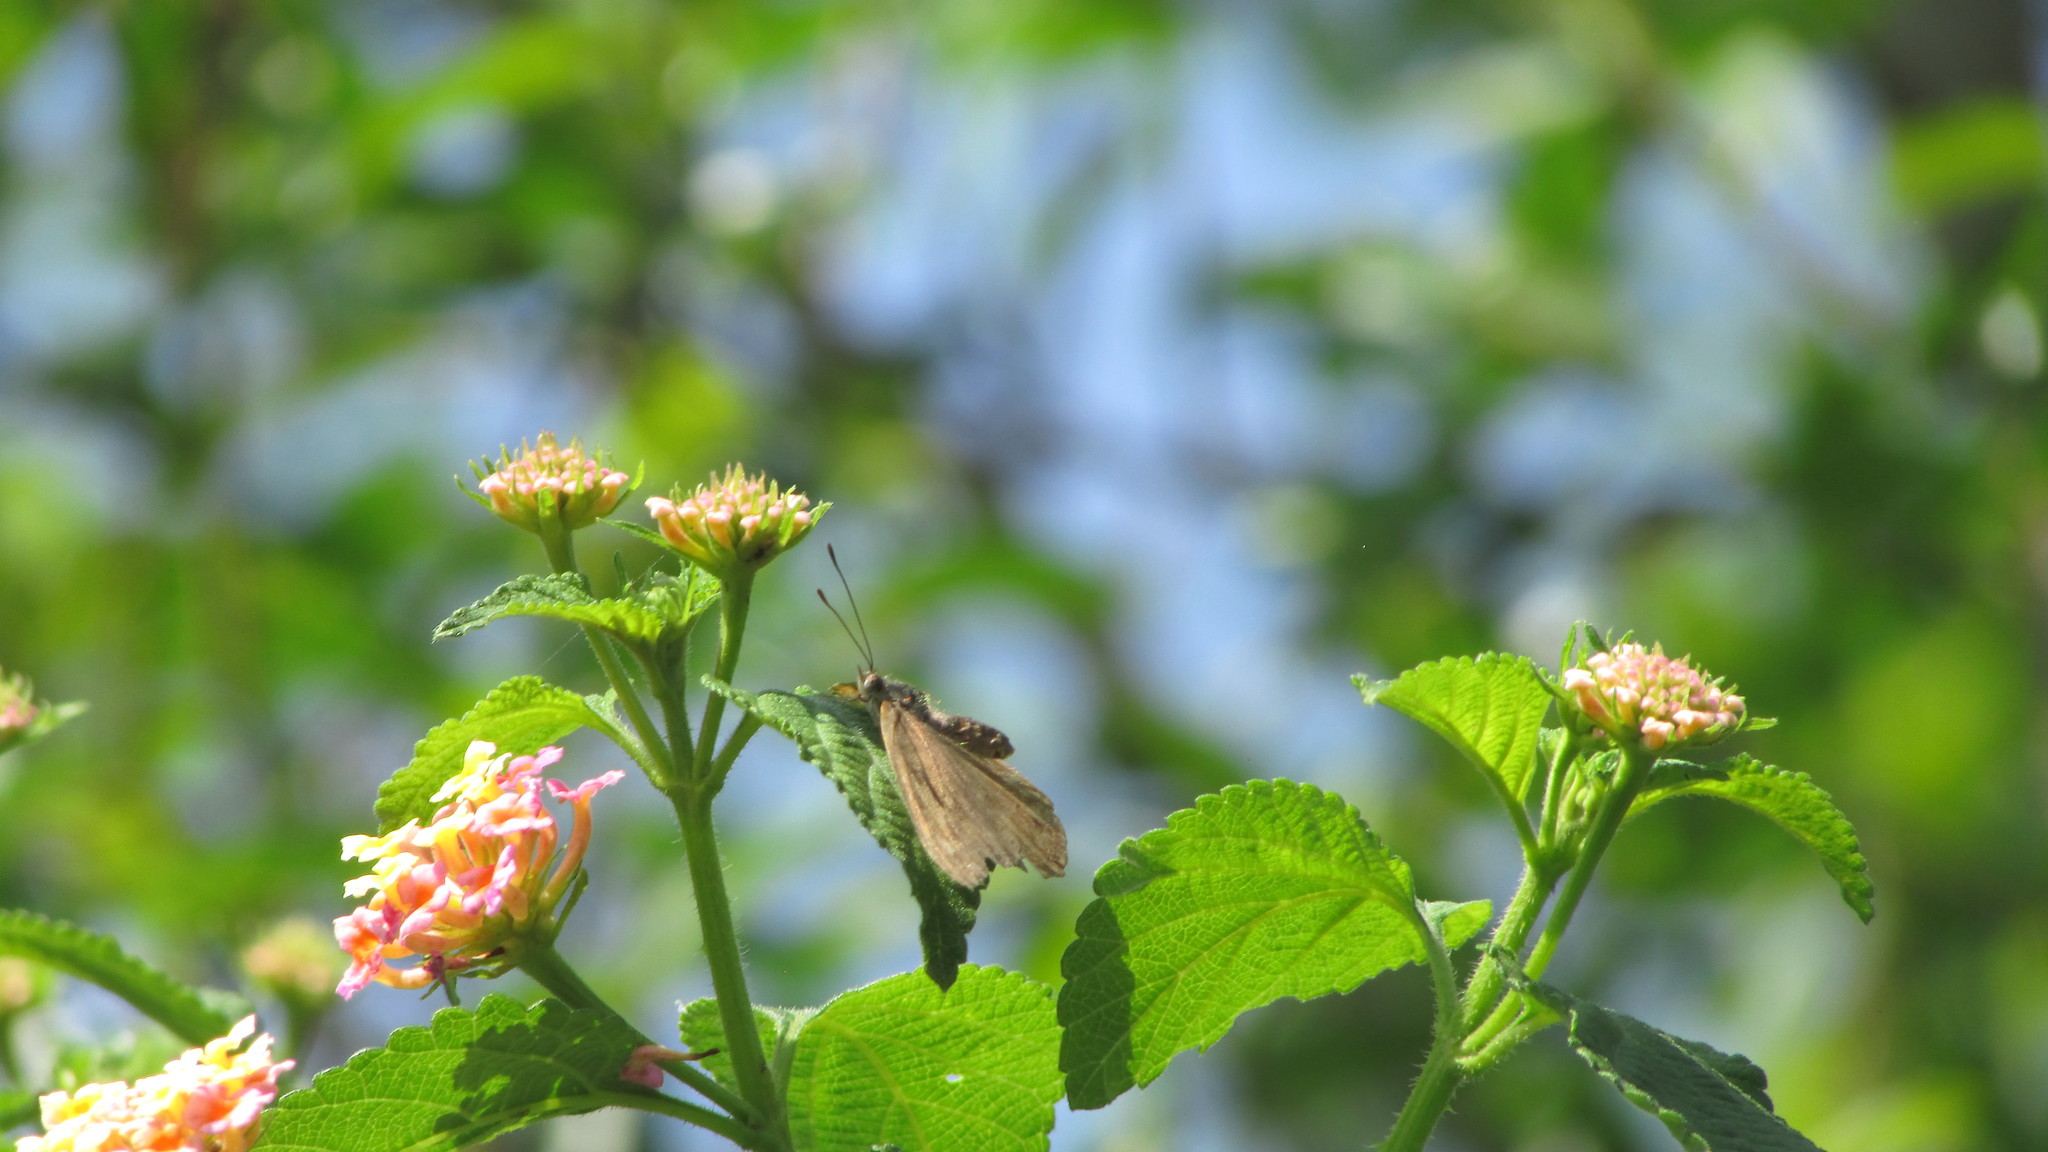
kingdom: Animalia
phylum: Arthropoda
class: Insecta
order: Lepidoptera
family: Nymphalidae
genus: Asterope
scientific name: Asterope boisduvali
